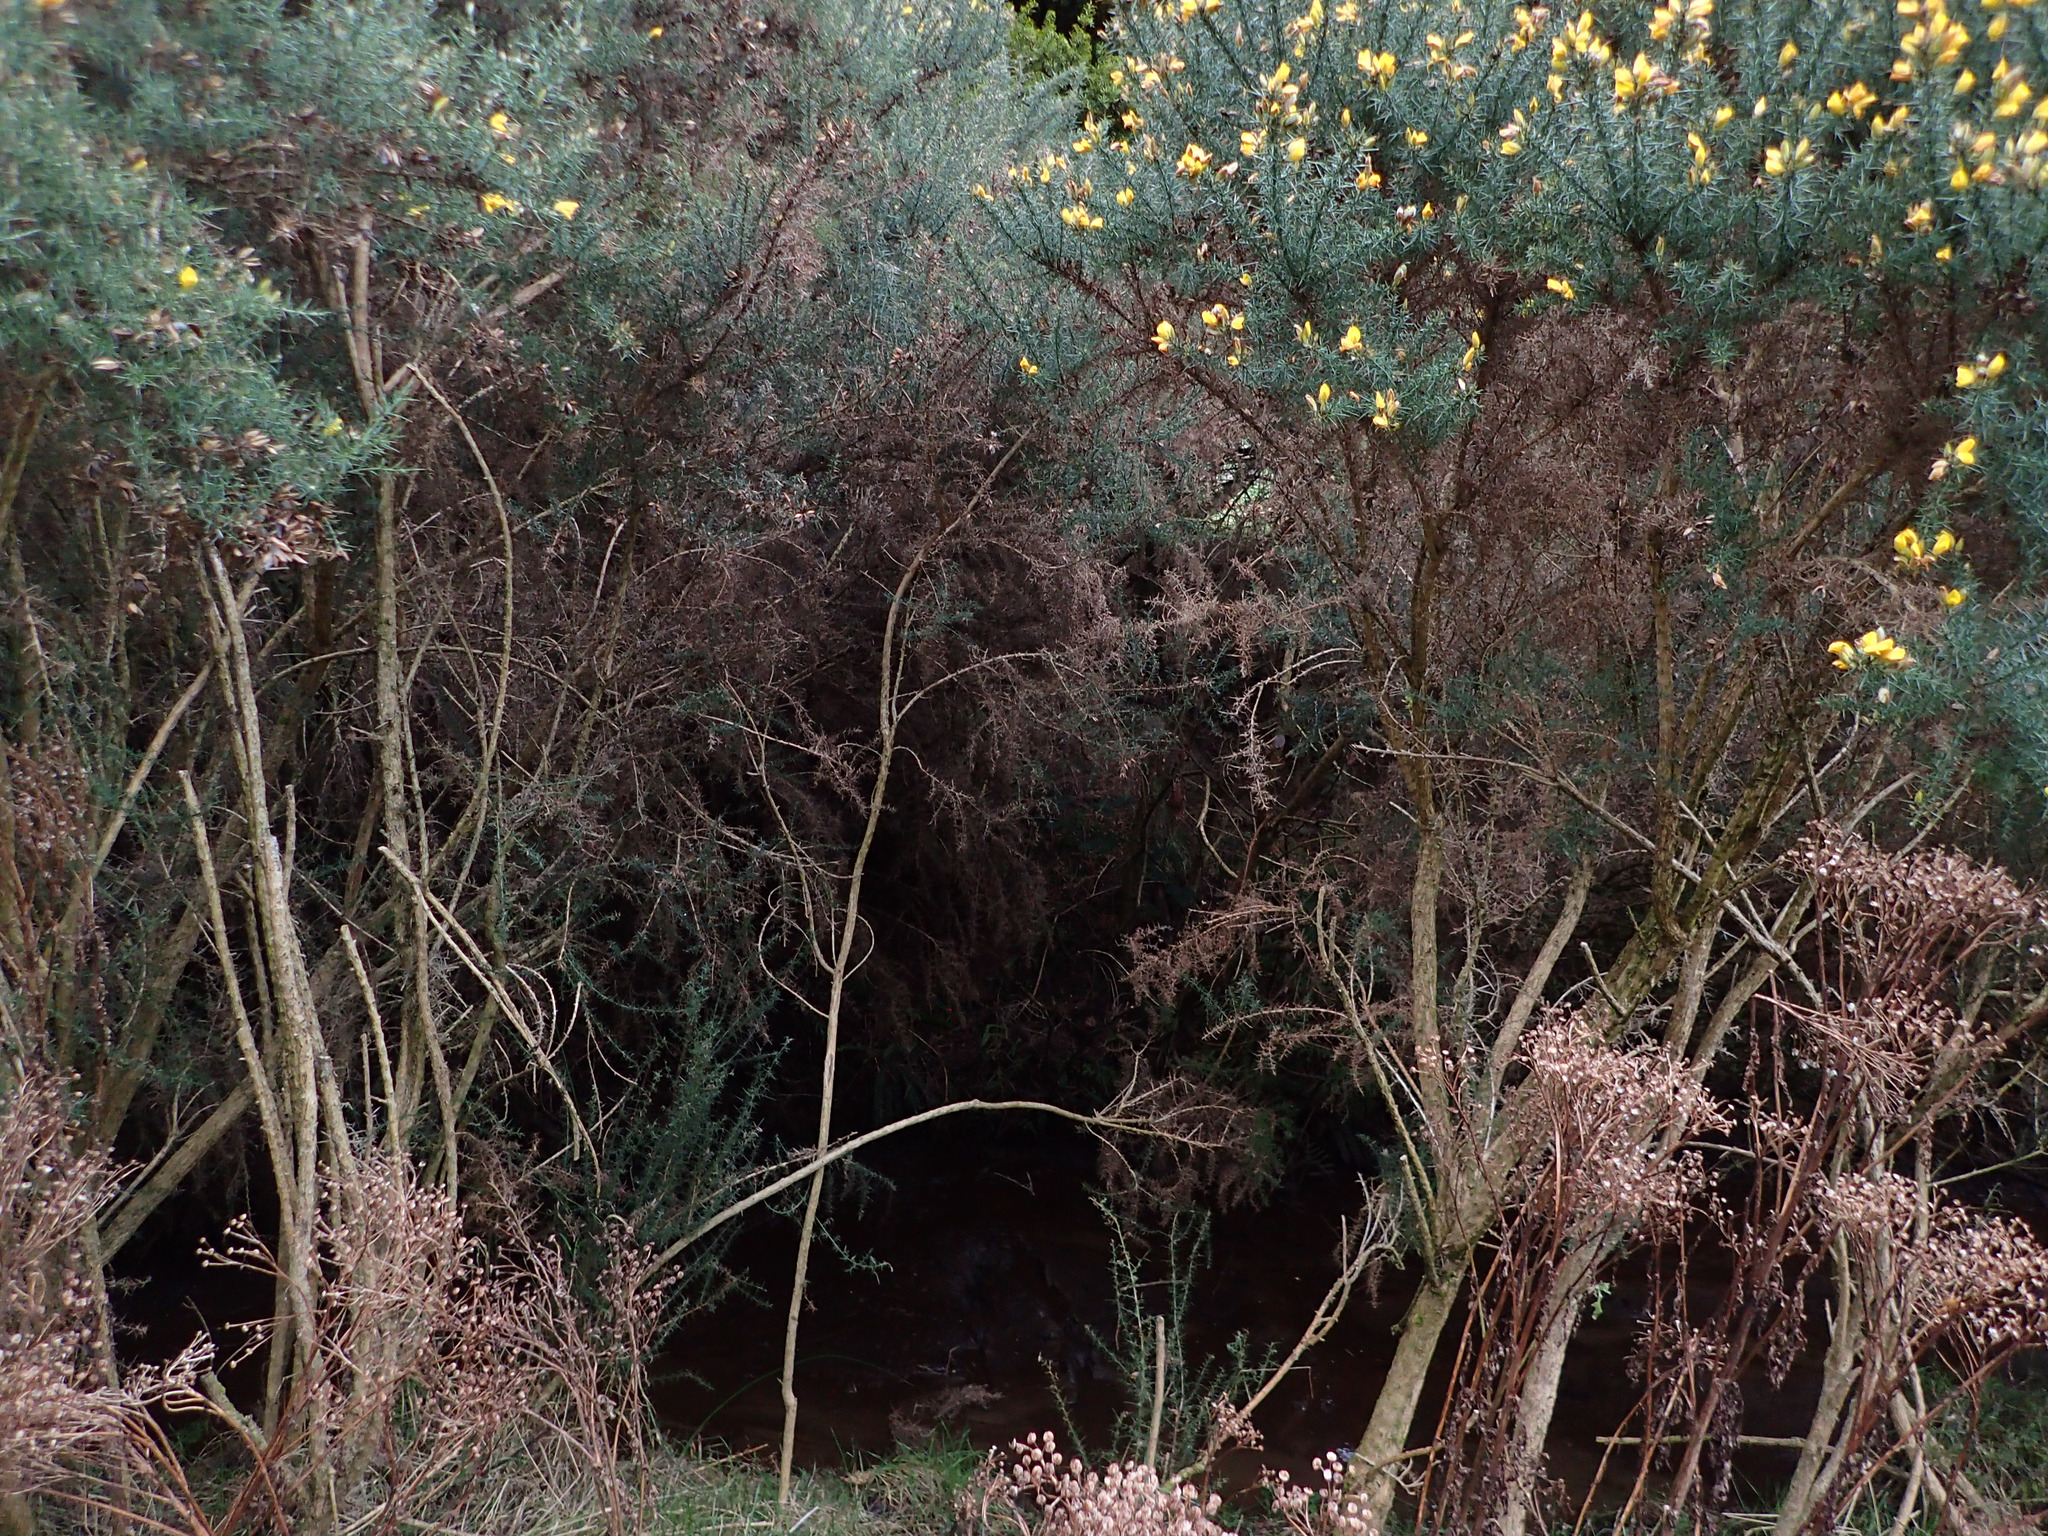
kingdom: Plantae
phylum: Tracheophyta
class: Magnoliopsida
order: Fabales
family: Fabaceae
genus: Ulex
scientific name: Ulex europaeus
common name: Common gorse
